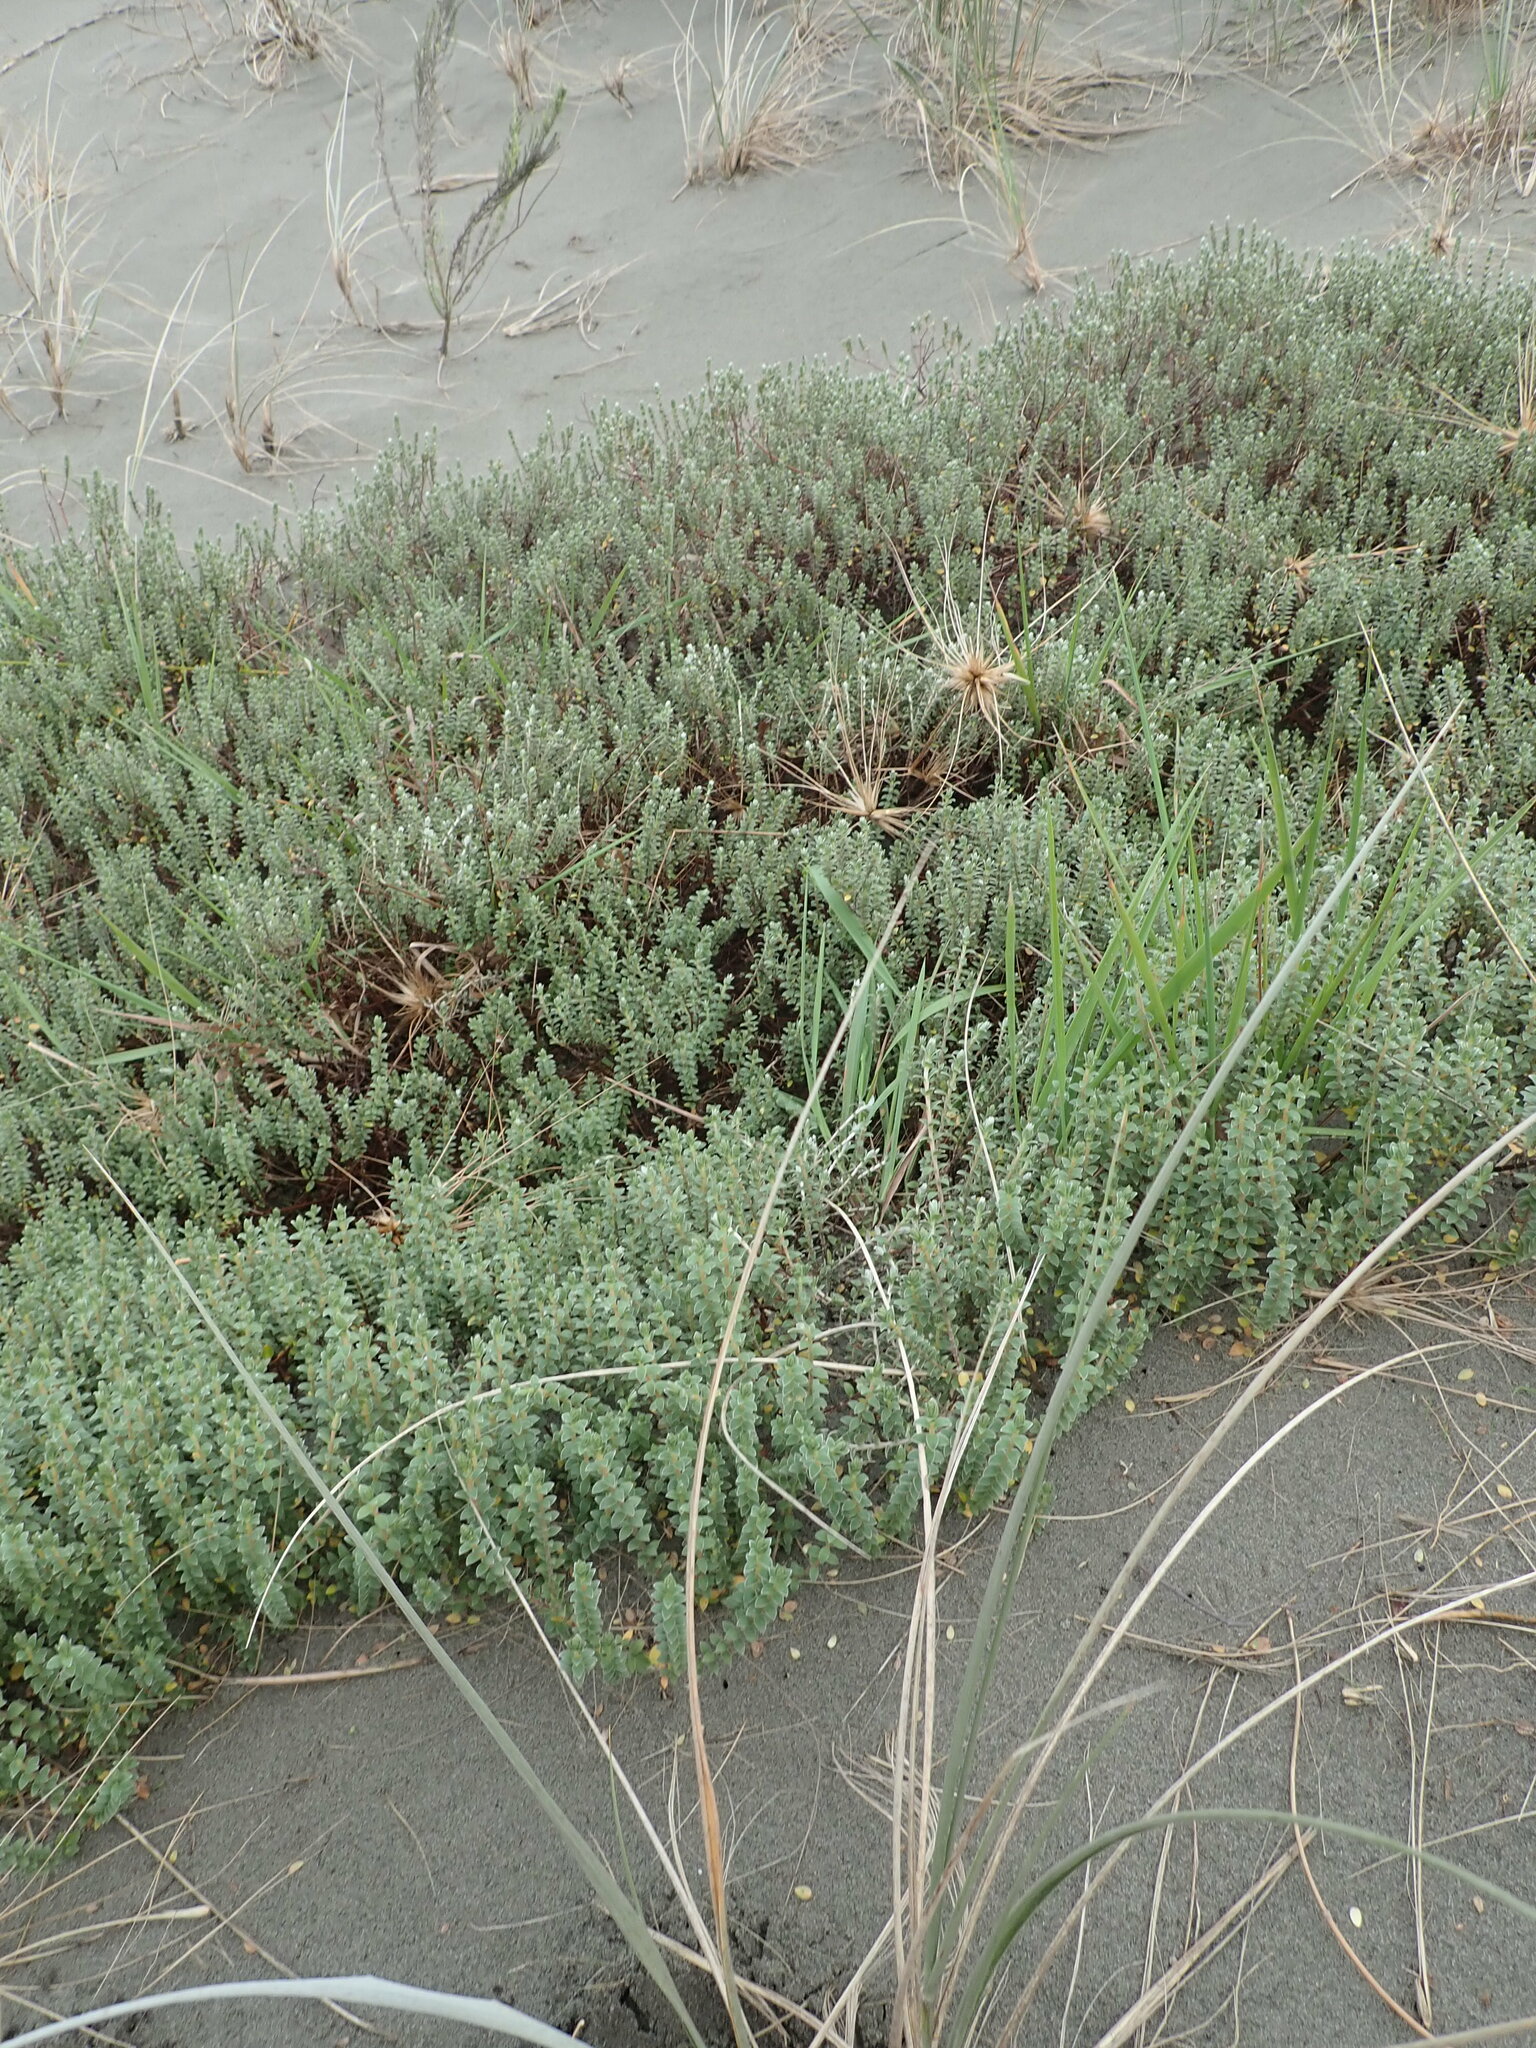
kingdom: Animalia
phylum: Arthropoda
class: Arachnida
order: Araneae
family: Theridiidae
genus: Latrodectus
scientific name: Latrodectus katipo
